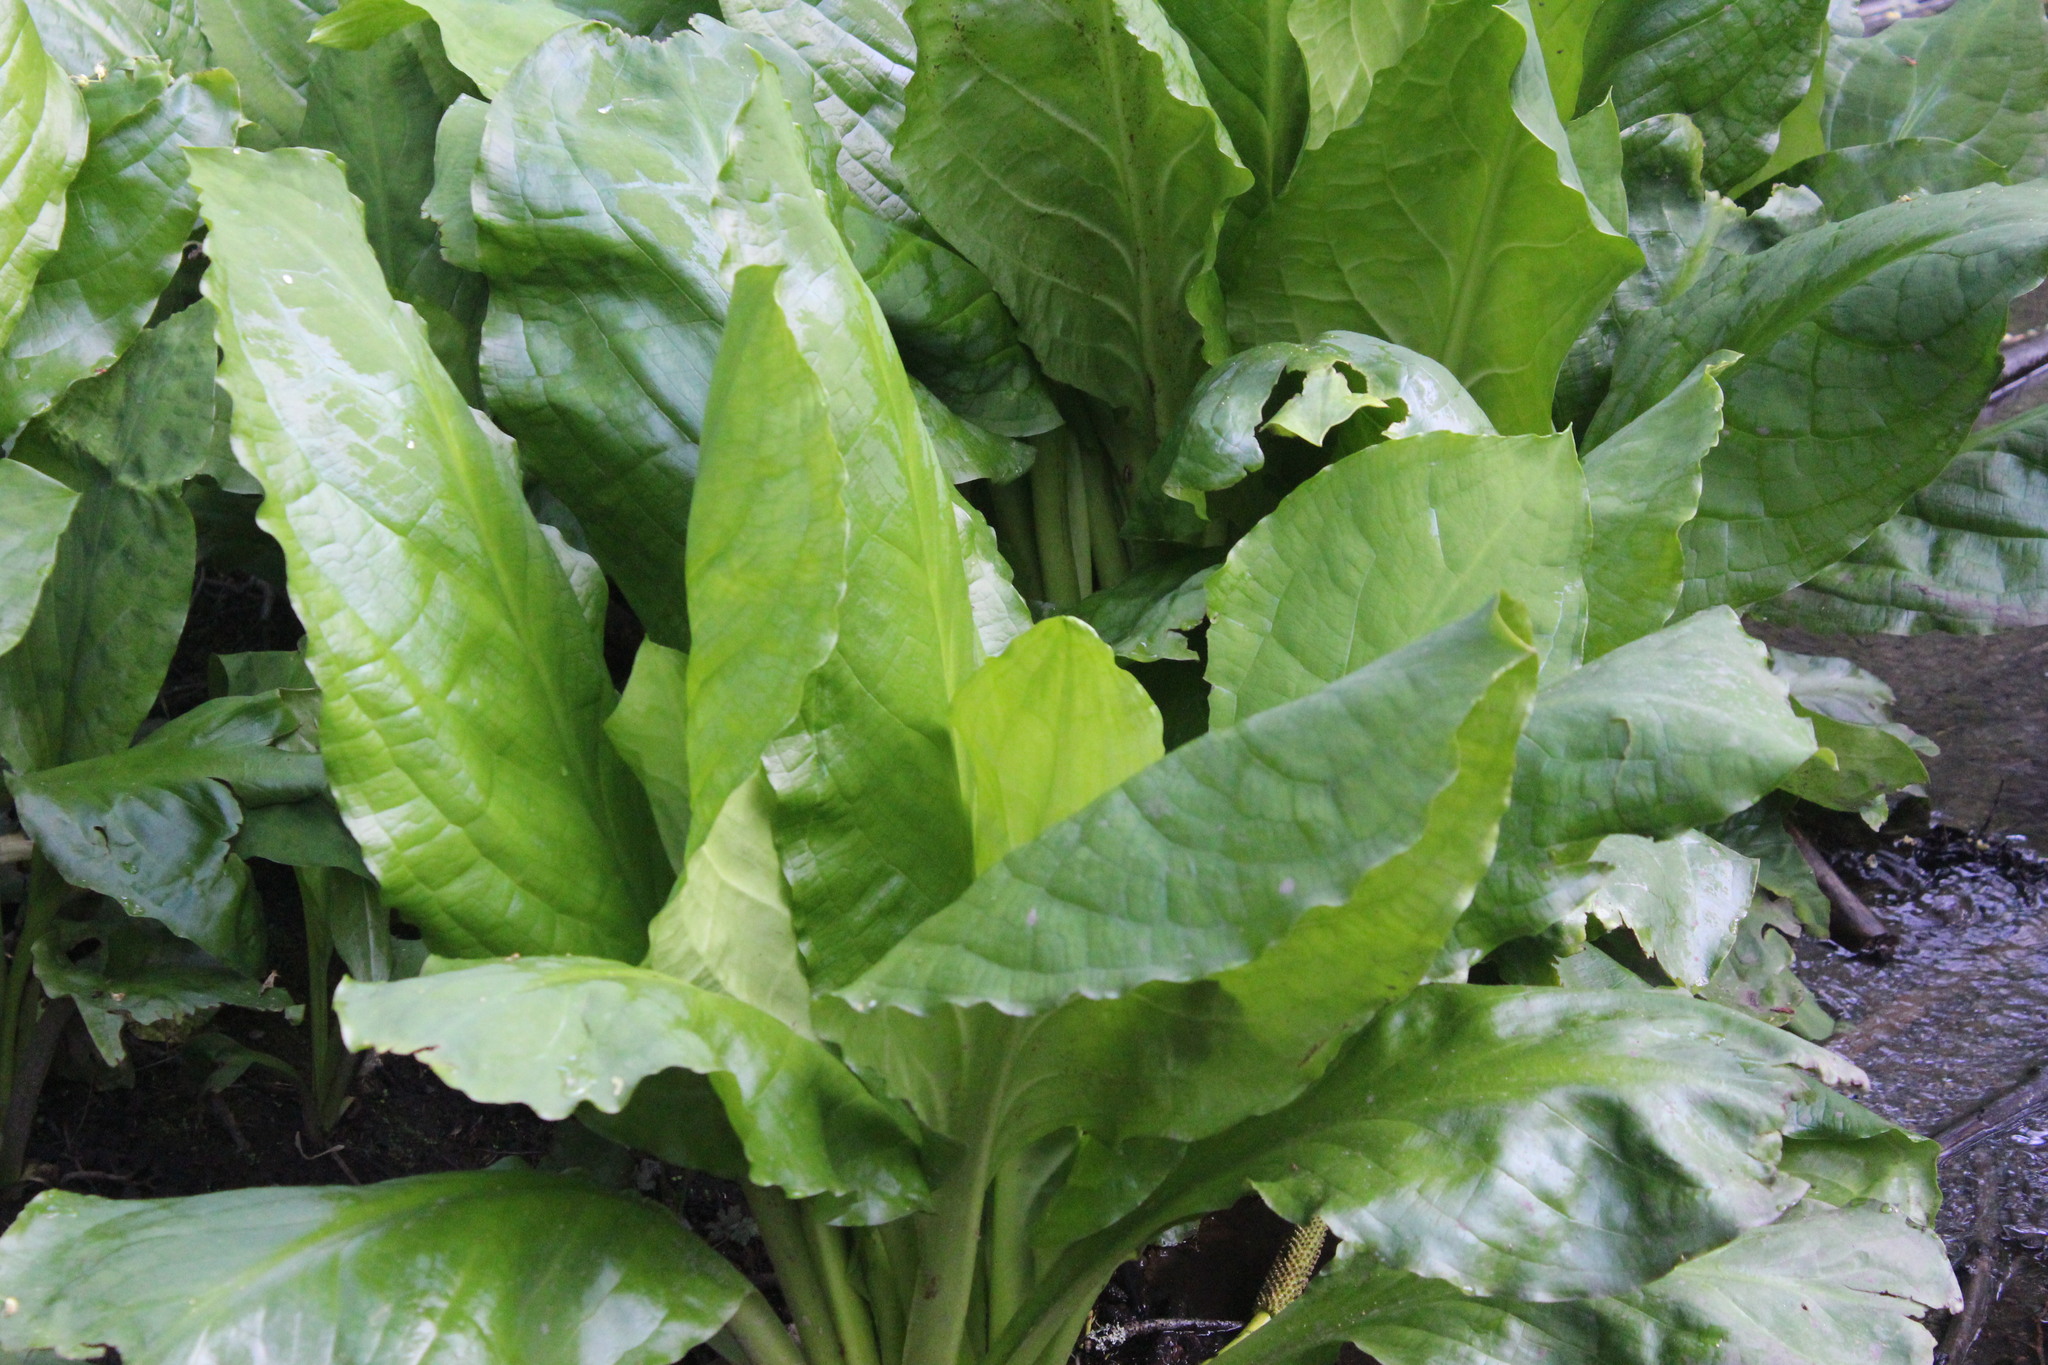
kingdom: Plantae
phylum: Tracheophyta
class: Liliopsida
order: Alismatales
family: Araceae
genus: Lysichiton
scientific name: Lysichiton americanus
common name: American skunk cabbage
